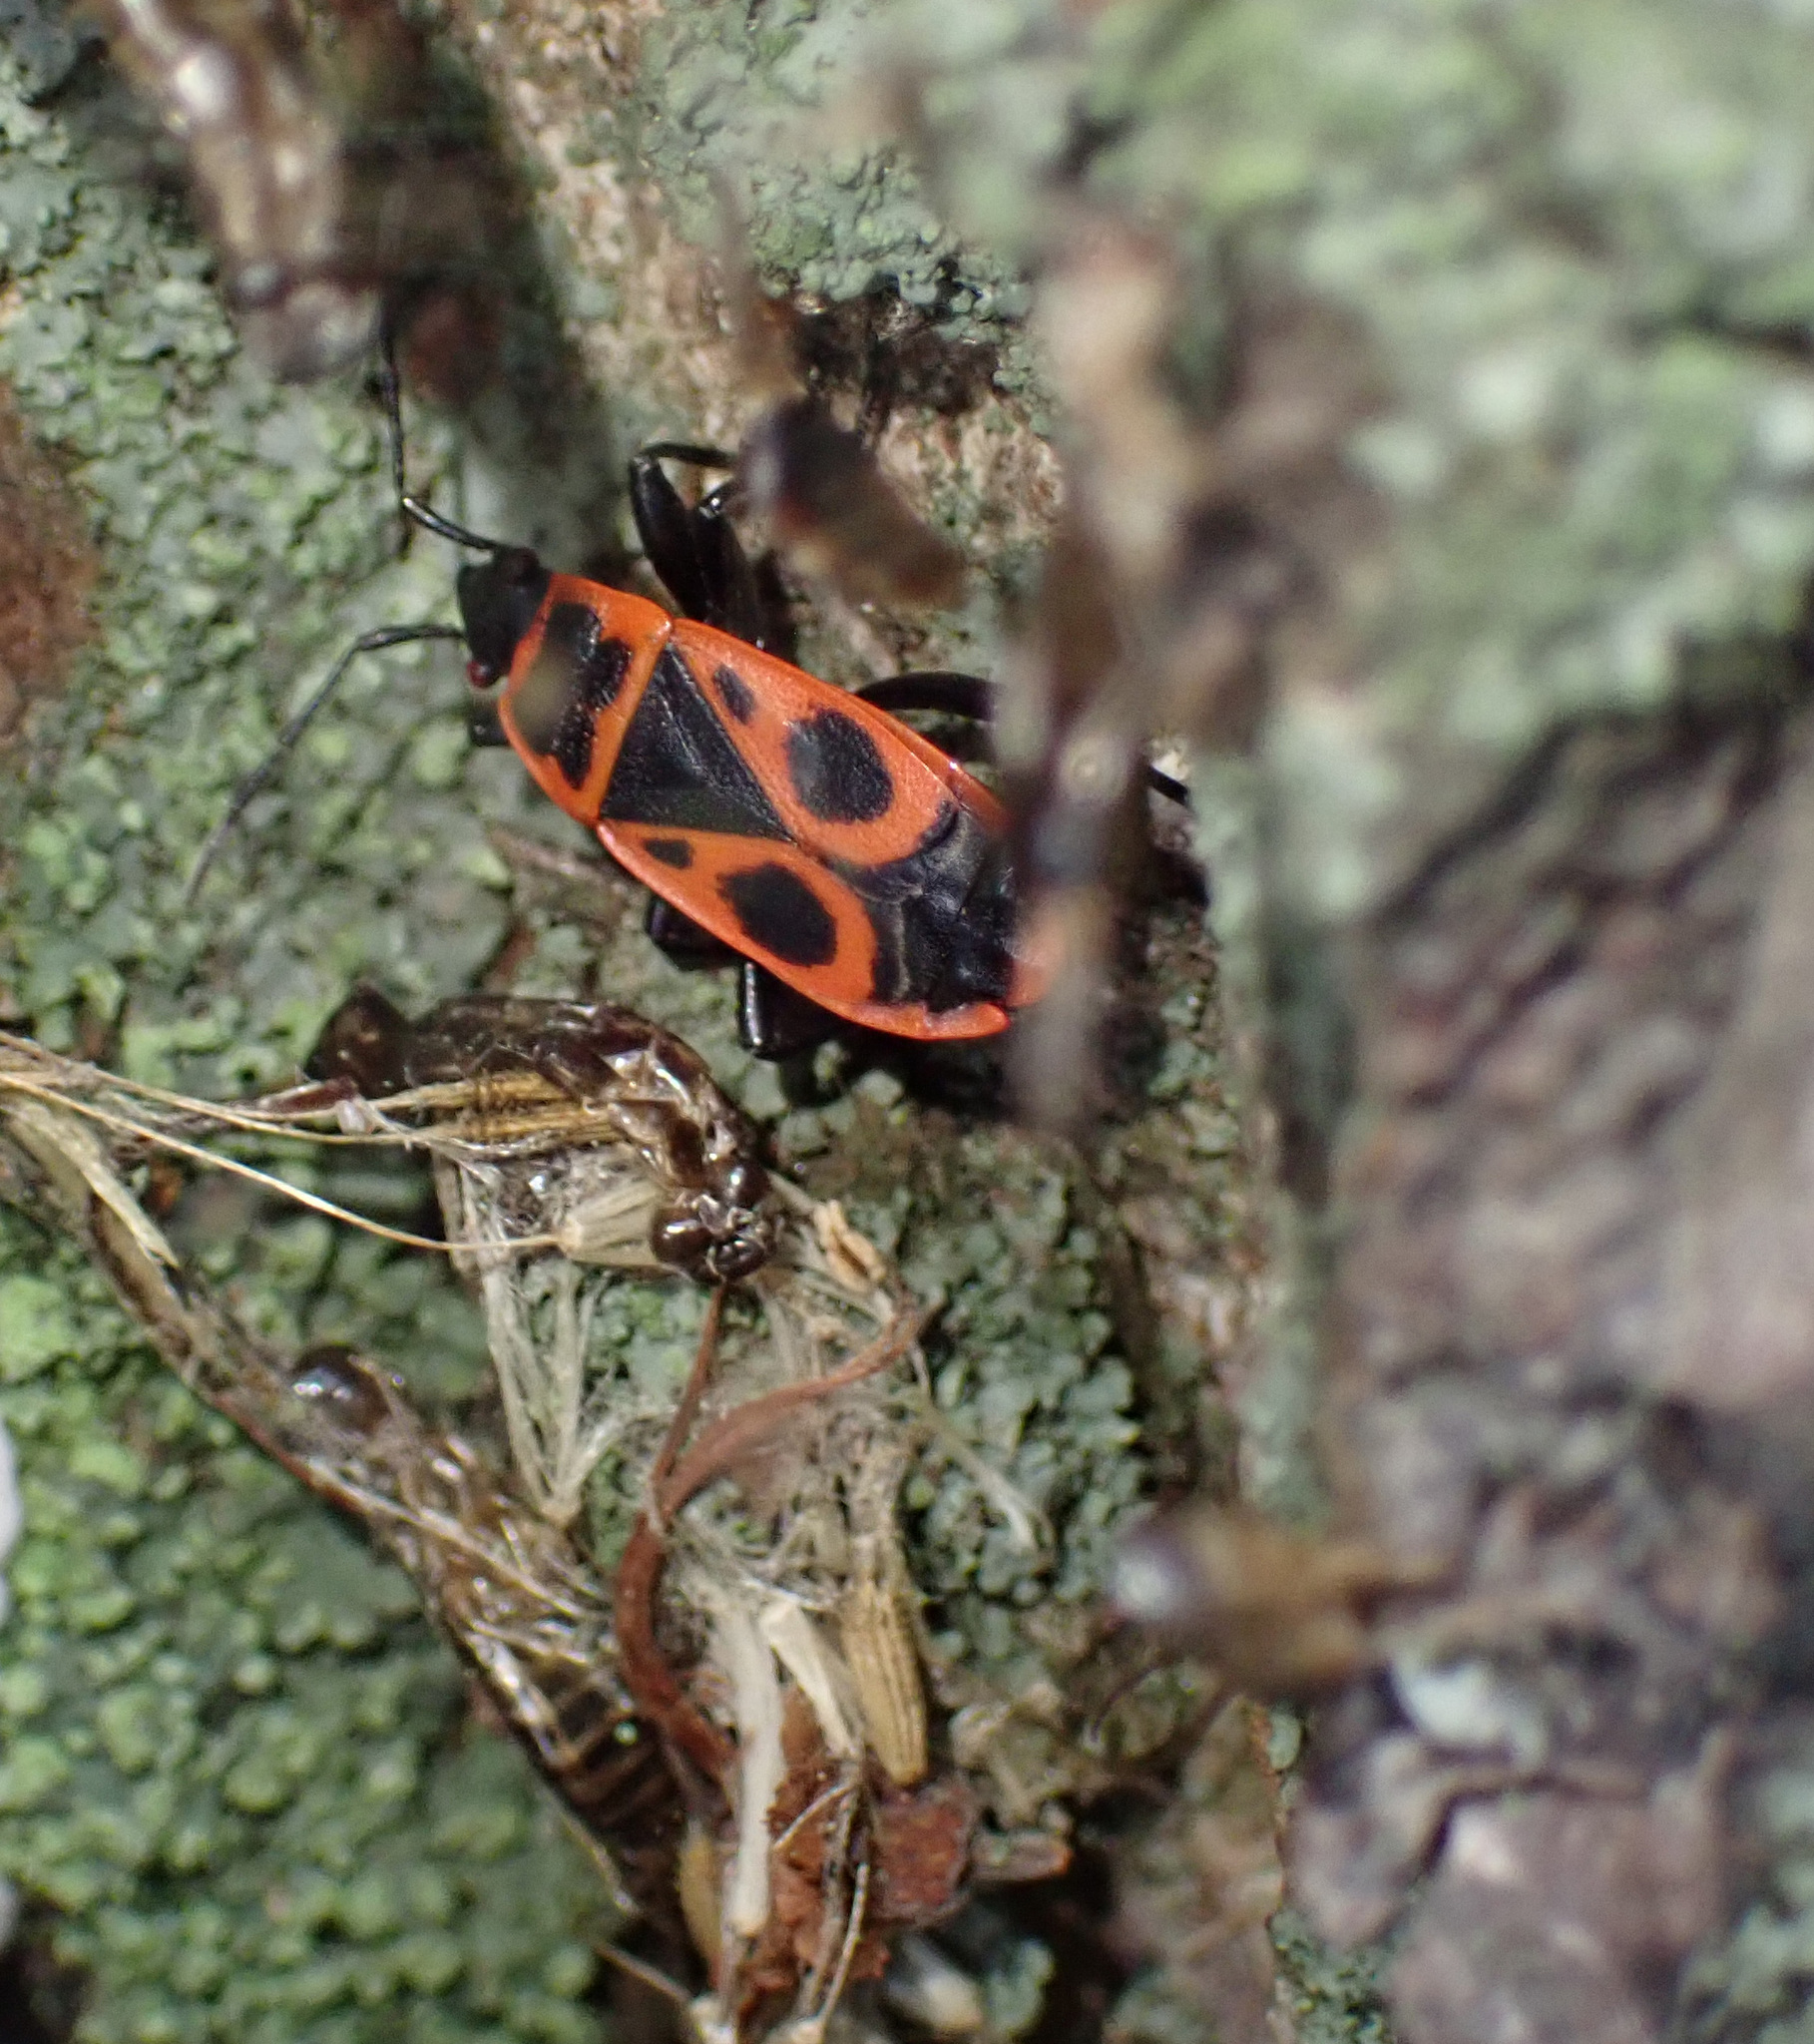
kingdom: Animalia
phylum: Arthropoda
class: Insecta
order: Hemiptera
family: Pyrrhocoridae
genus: Pyrrhocoris
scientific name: Pyrrhocoris apterus
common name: Firebug
